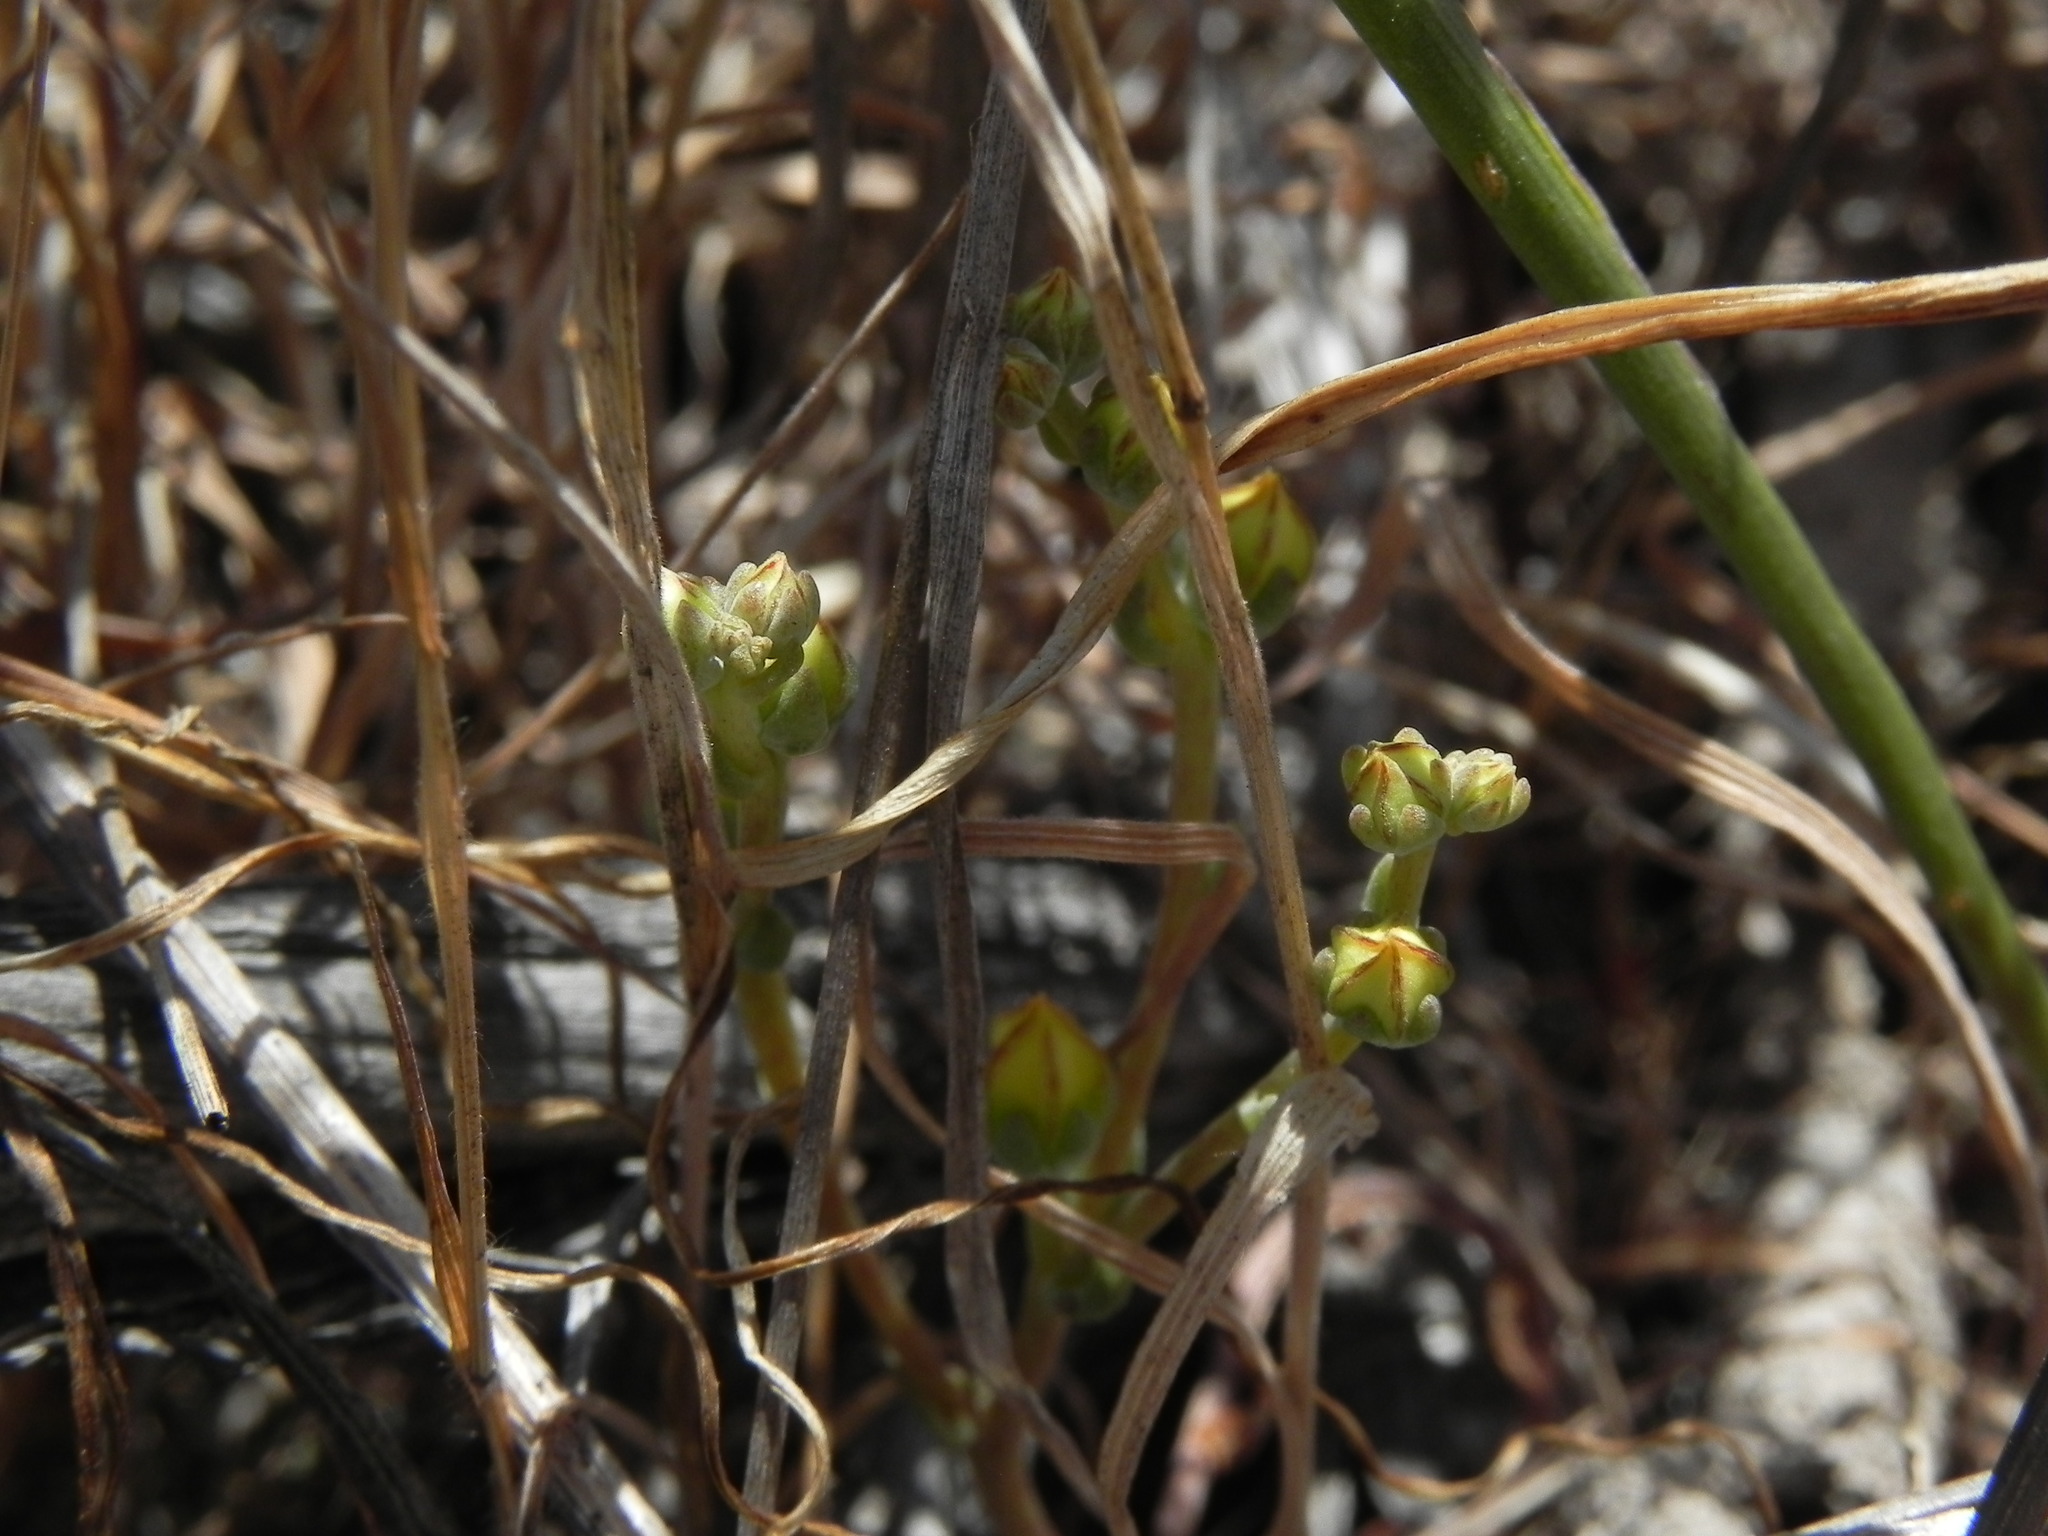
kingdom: Plantae
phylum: Tracheophyta
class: Magnoliopsida
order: Saxifragales
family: Crassulaceae
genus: Dudleya
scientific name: Dudleya variegata
